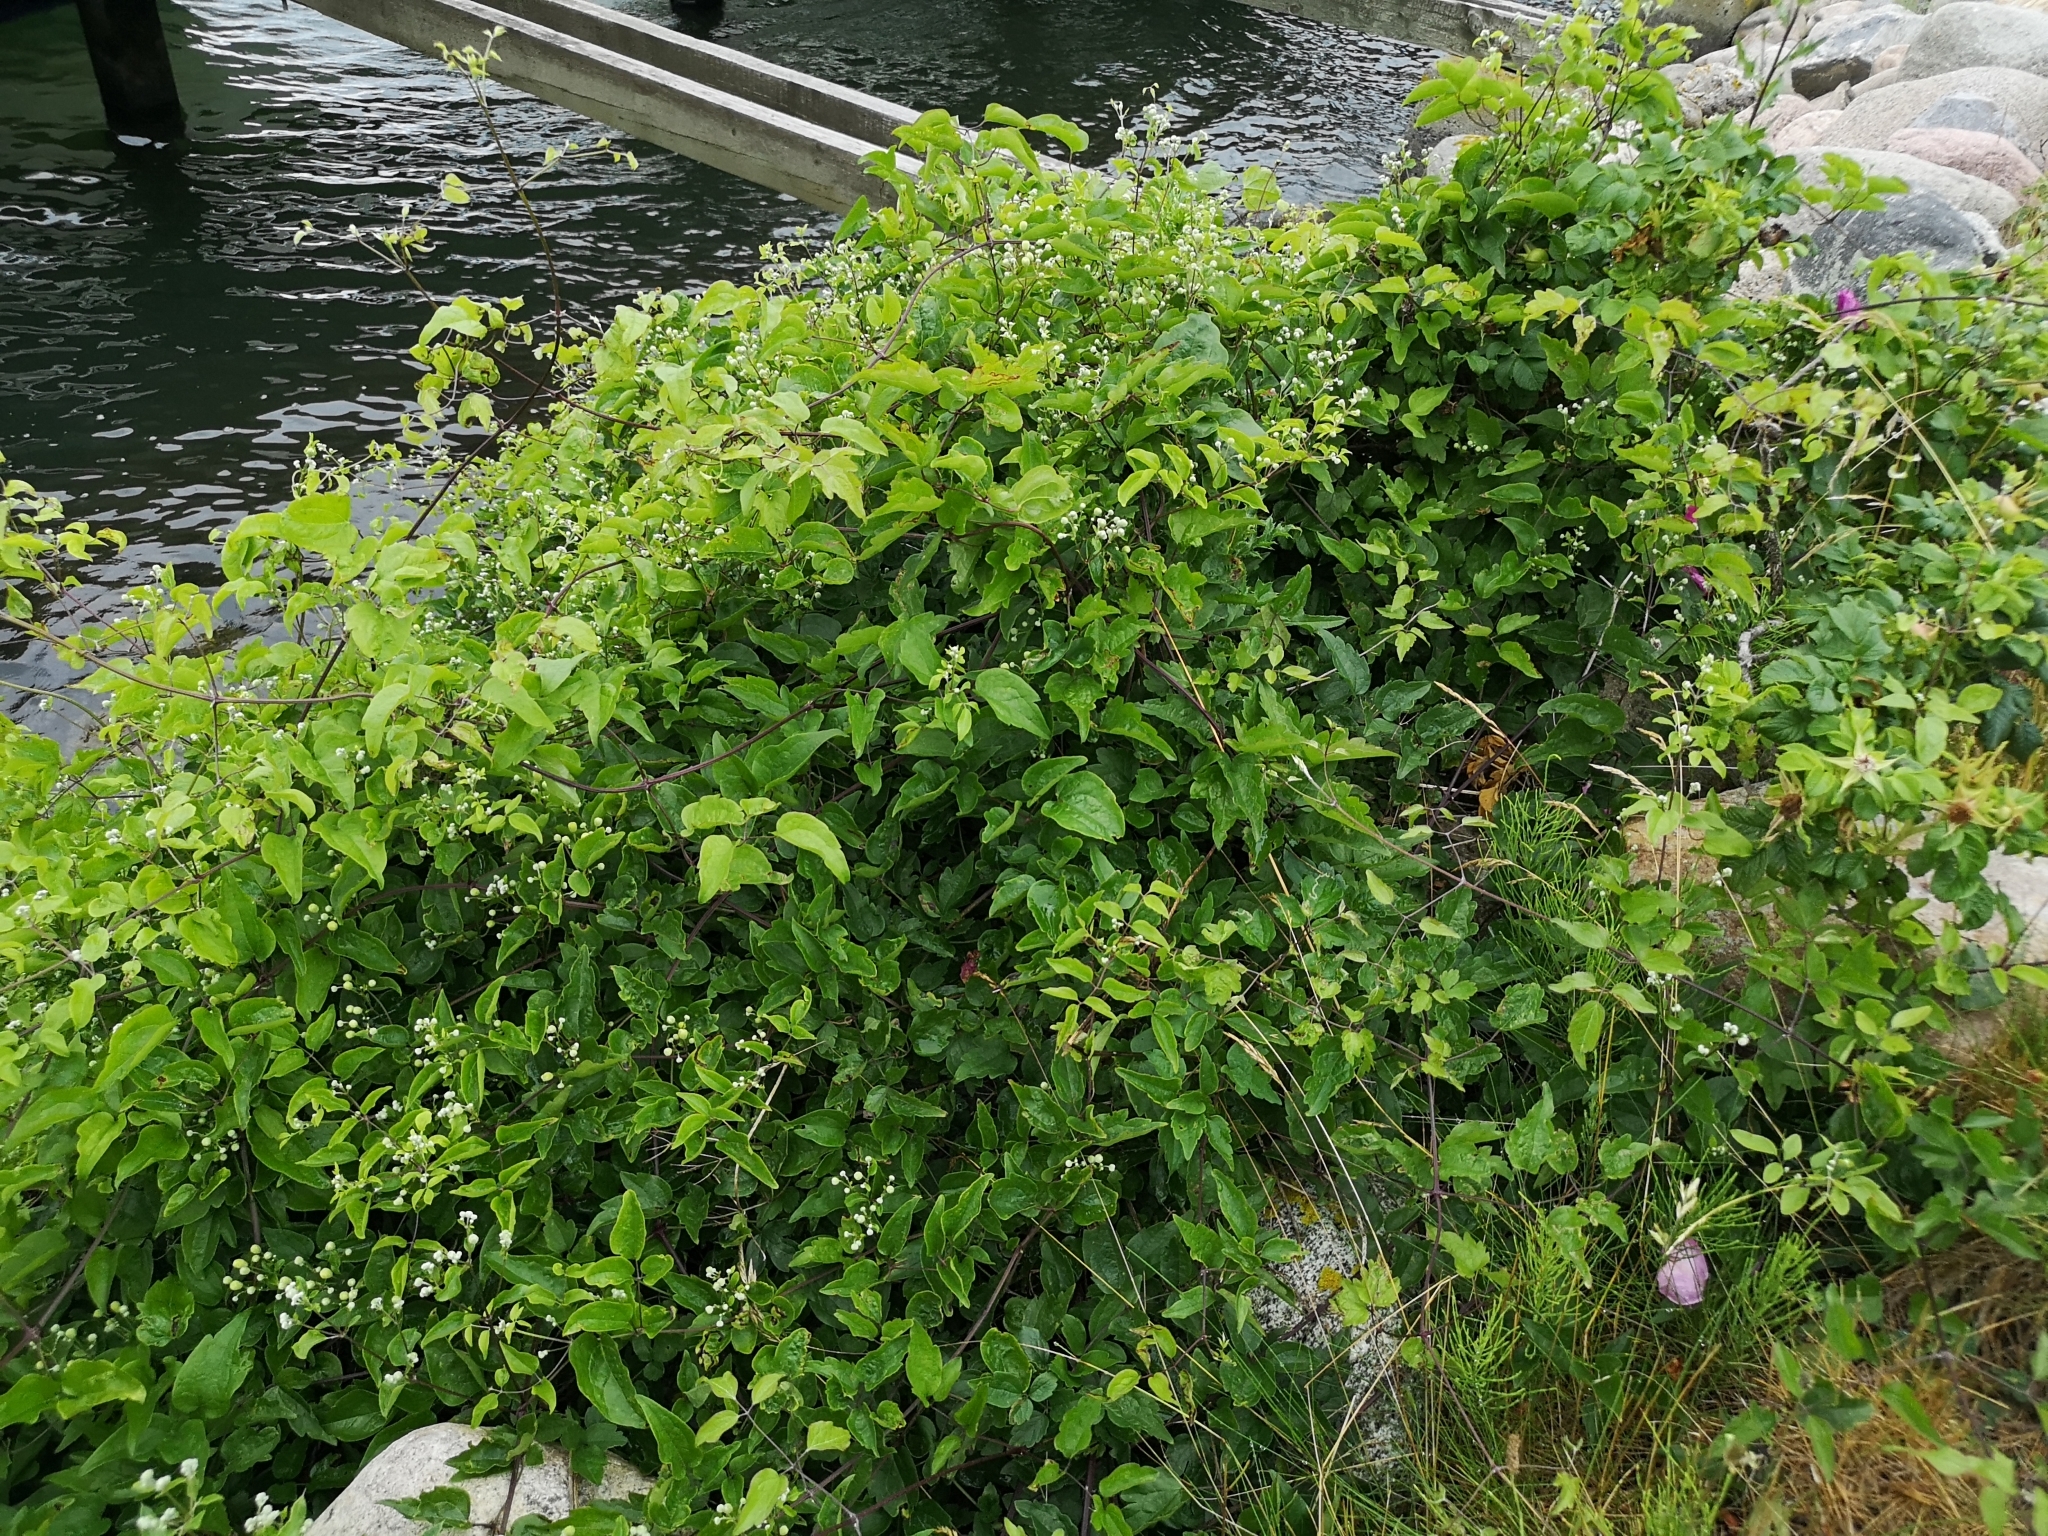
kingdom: Plantae
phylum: Tracheophyta
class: Magnoliopsida
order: Ranunculales
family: Ranunculaceae
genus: Clematis
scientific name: Clematis vitalba
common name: Evergreen clematis
